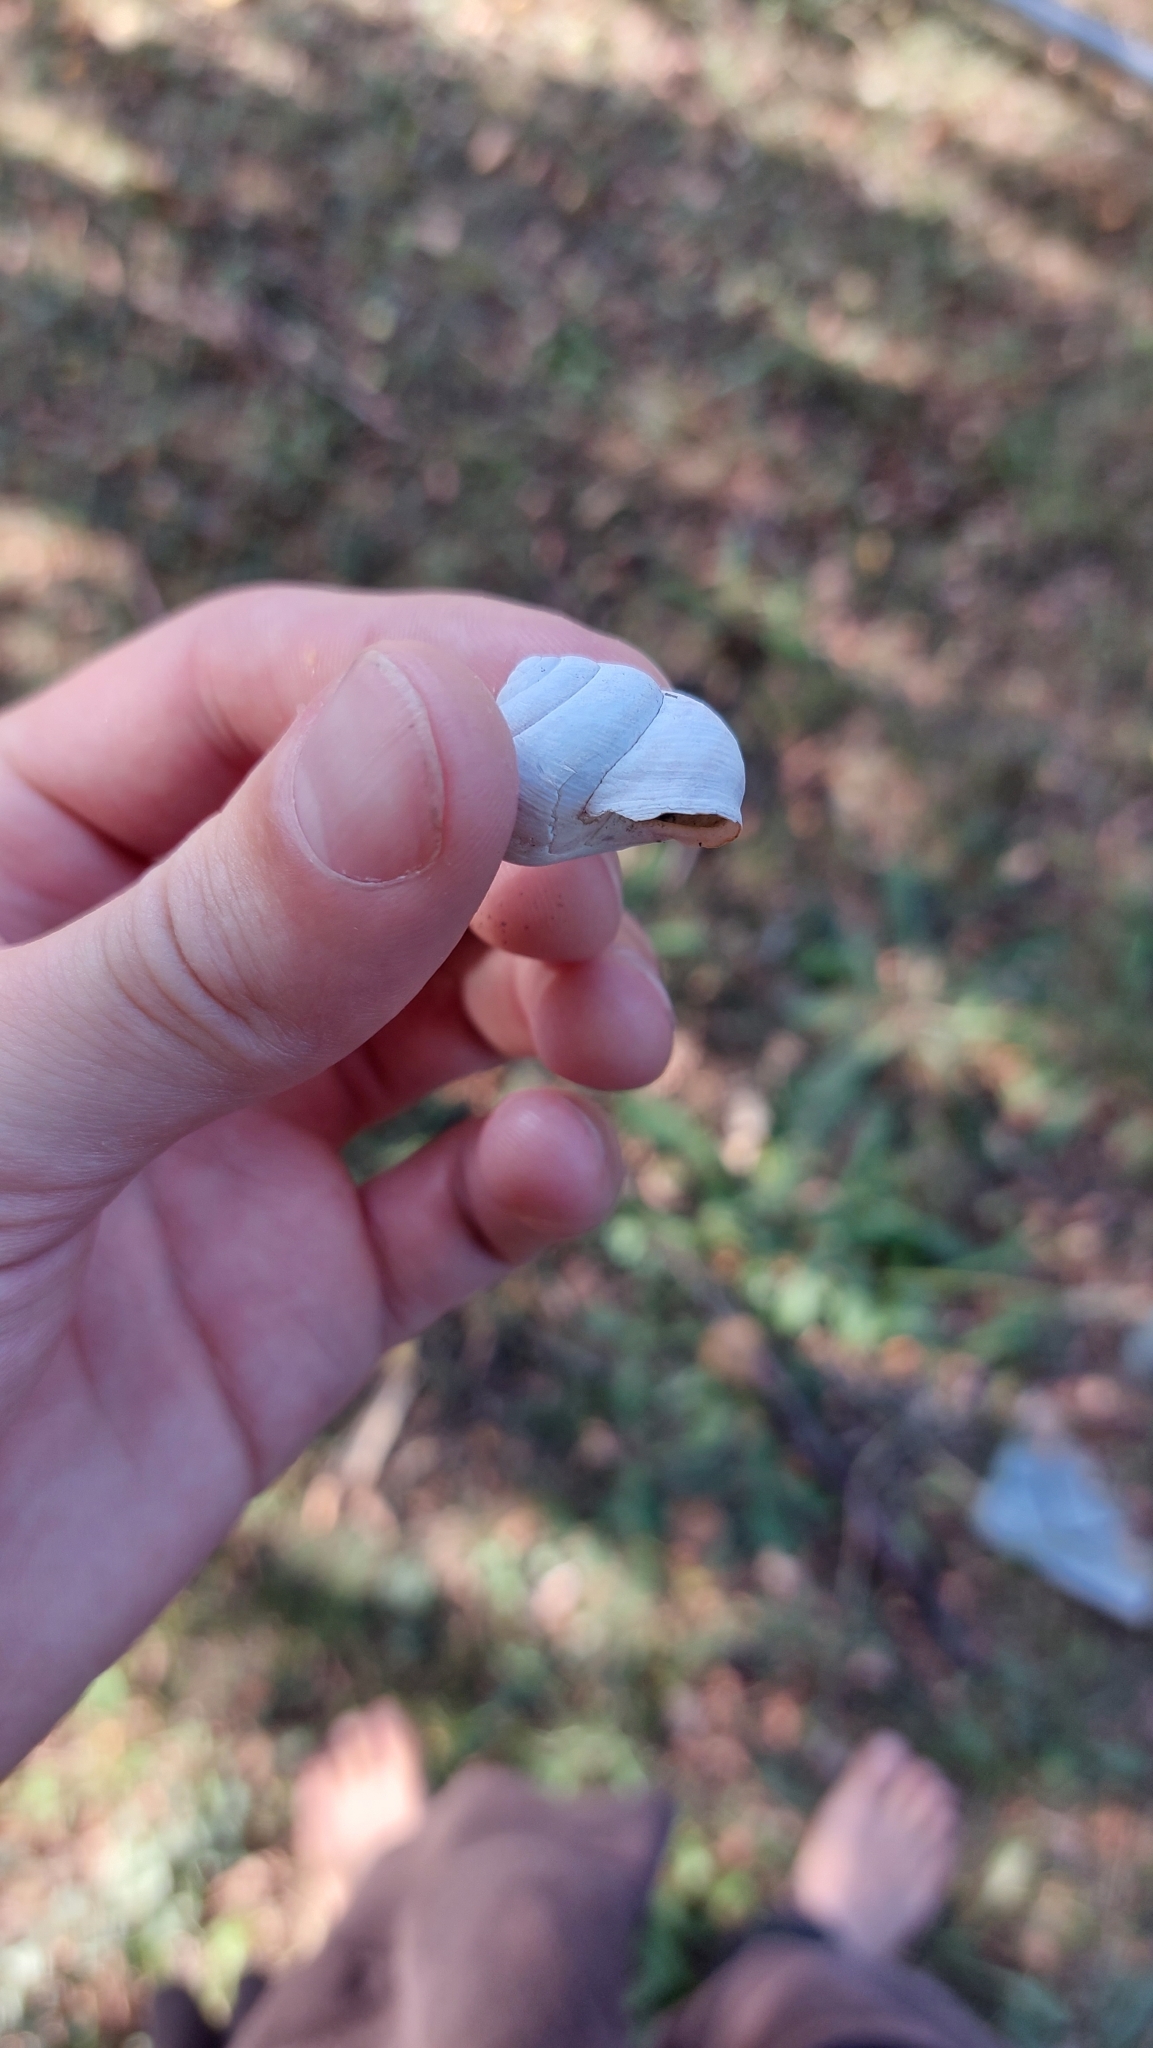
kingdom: Animalia
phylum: Mollusca
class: Gastropoda
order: Stylommatophora
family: Helicidae
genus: Caucasotachea
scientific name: Caucasotachea vindobonensis
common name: European helicid land snail
